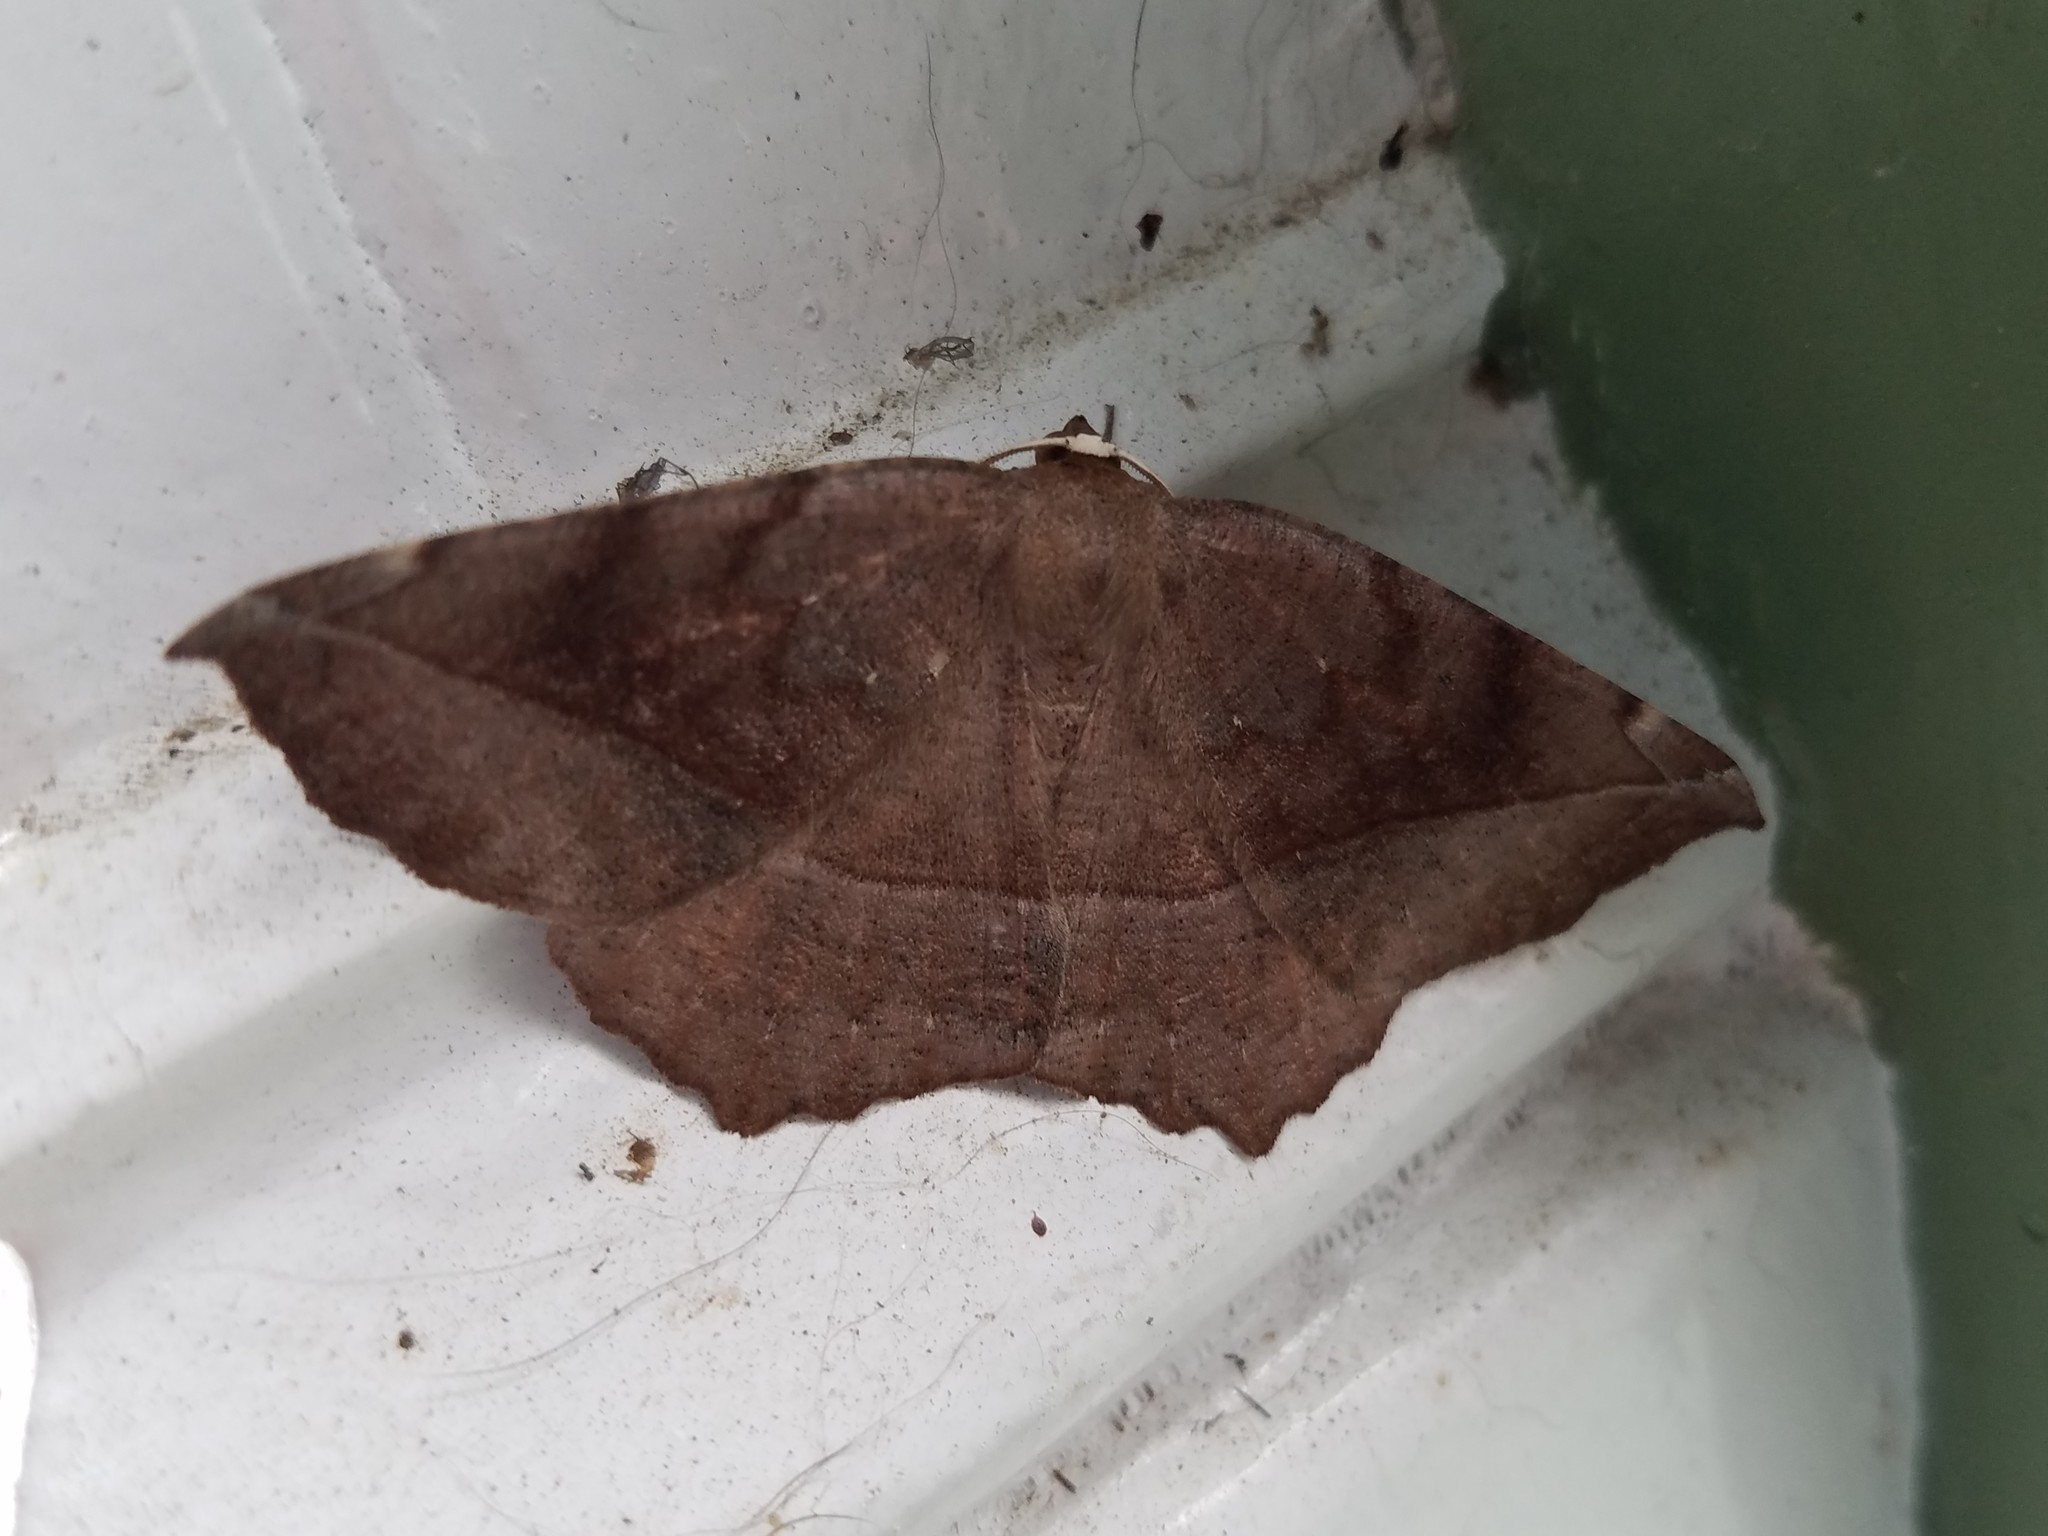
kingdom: Animalia
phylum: Arthropoda
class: Insecta
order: Lepidoptera
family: Geometridae
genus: Eutrapela
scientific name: Eutrapela clemataria
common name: Curved-toothed geometer
